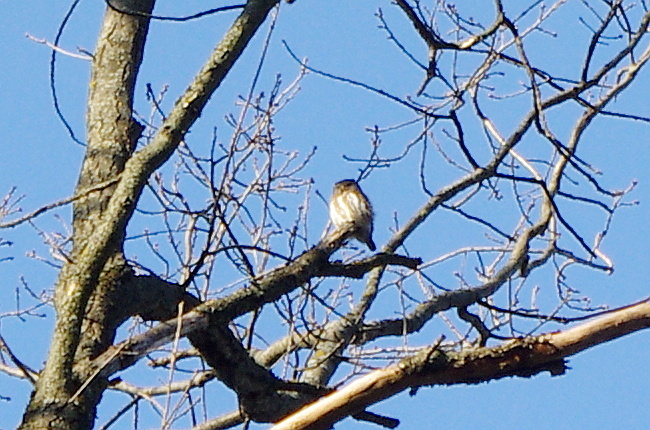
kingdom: Animalia
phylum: Chordata
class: Aves
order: Strigiformes
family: Strigidae
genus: Glaucidium
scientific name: Glaucidium passerinum
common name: Eurasian pygmy owl
